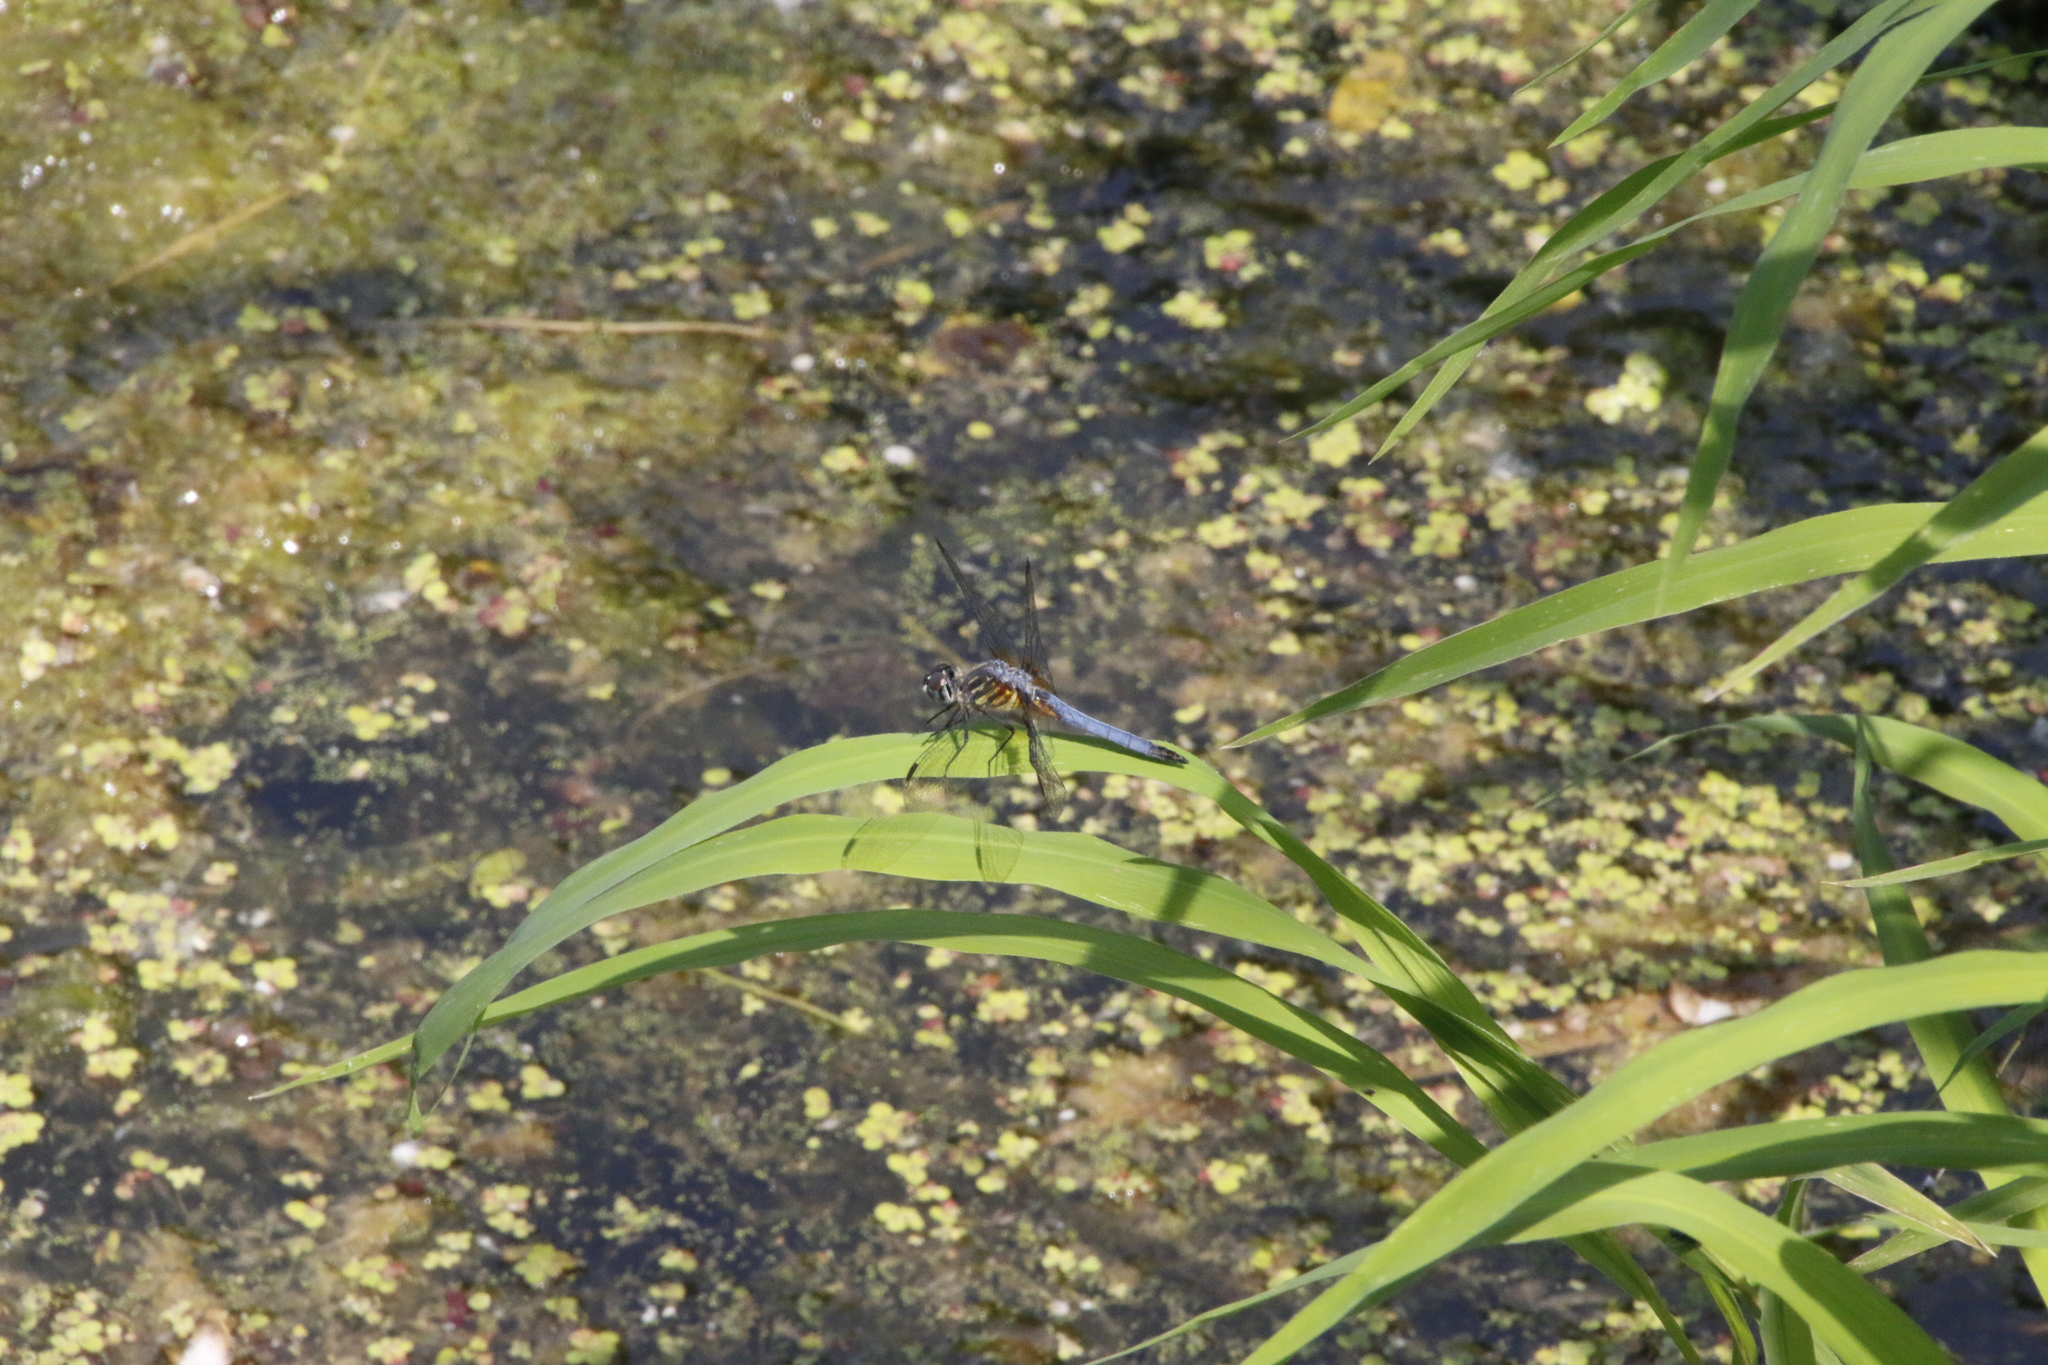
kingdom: Animalia
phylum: Arthropoda
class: Insecta
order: Odonata
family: Libellulidae
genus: Pachydiplax
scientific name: Pachydiplax longipennis
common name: Blue dasher
